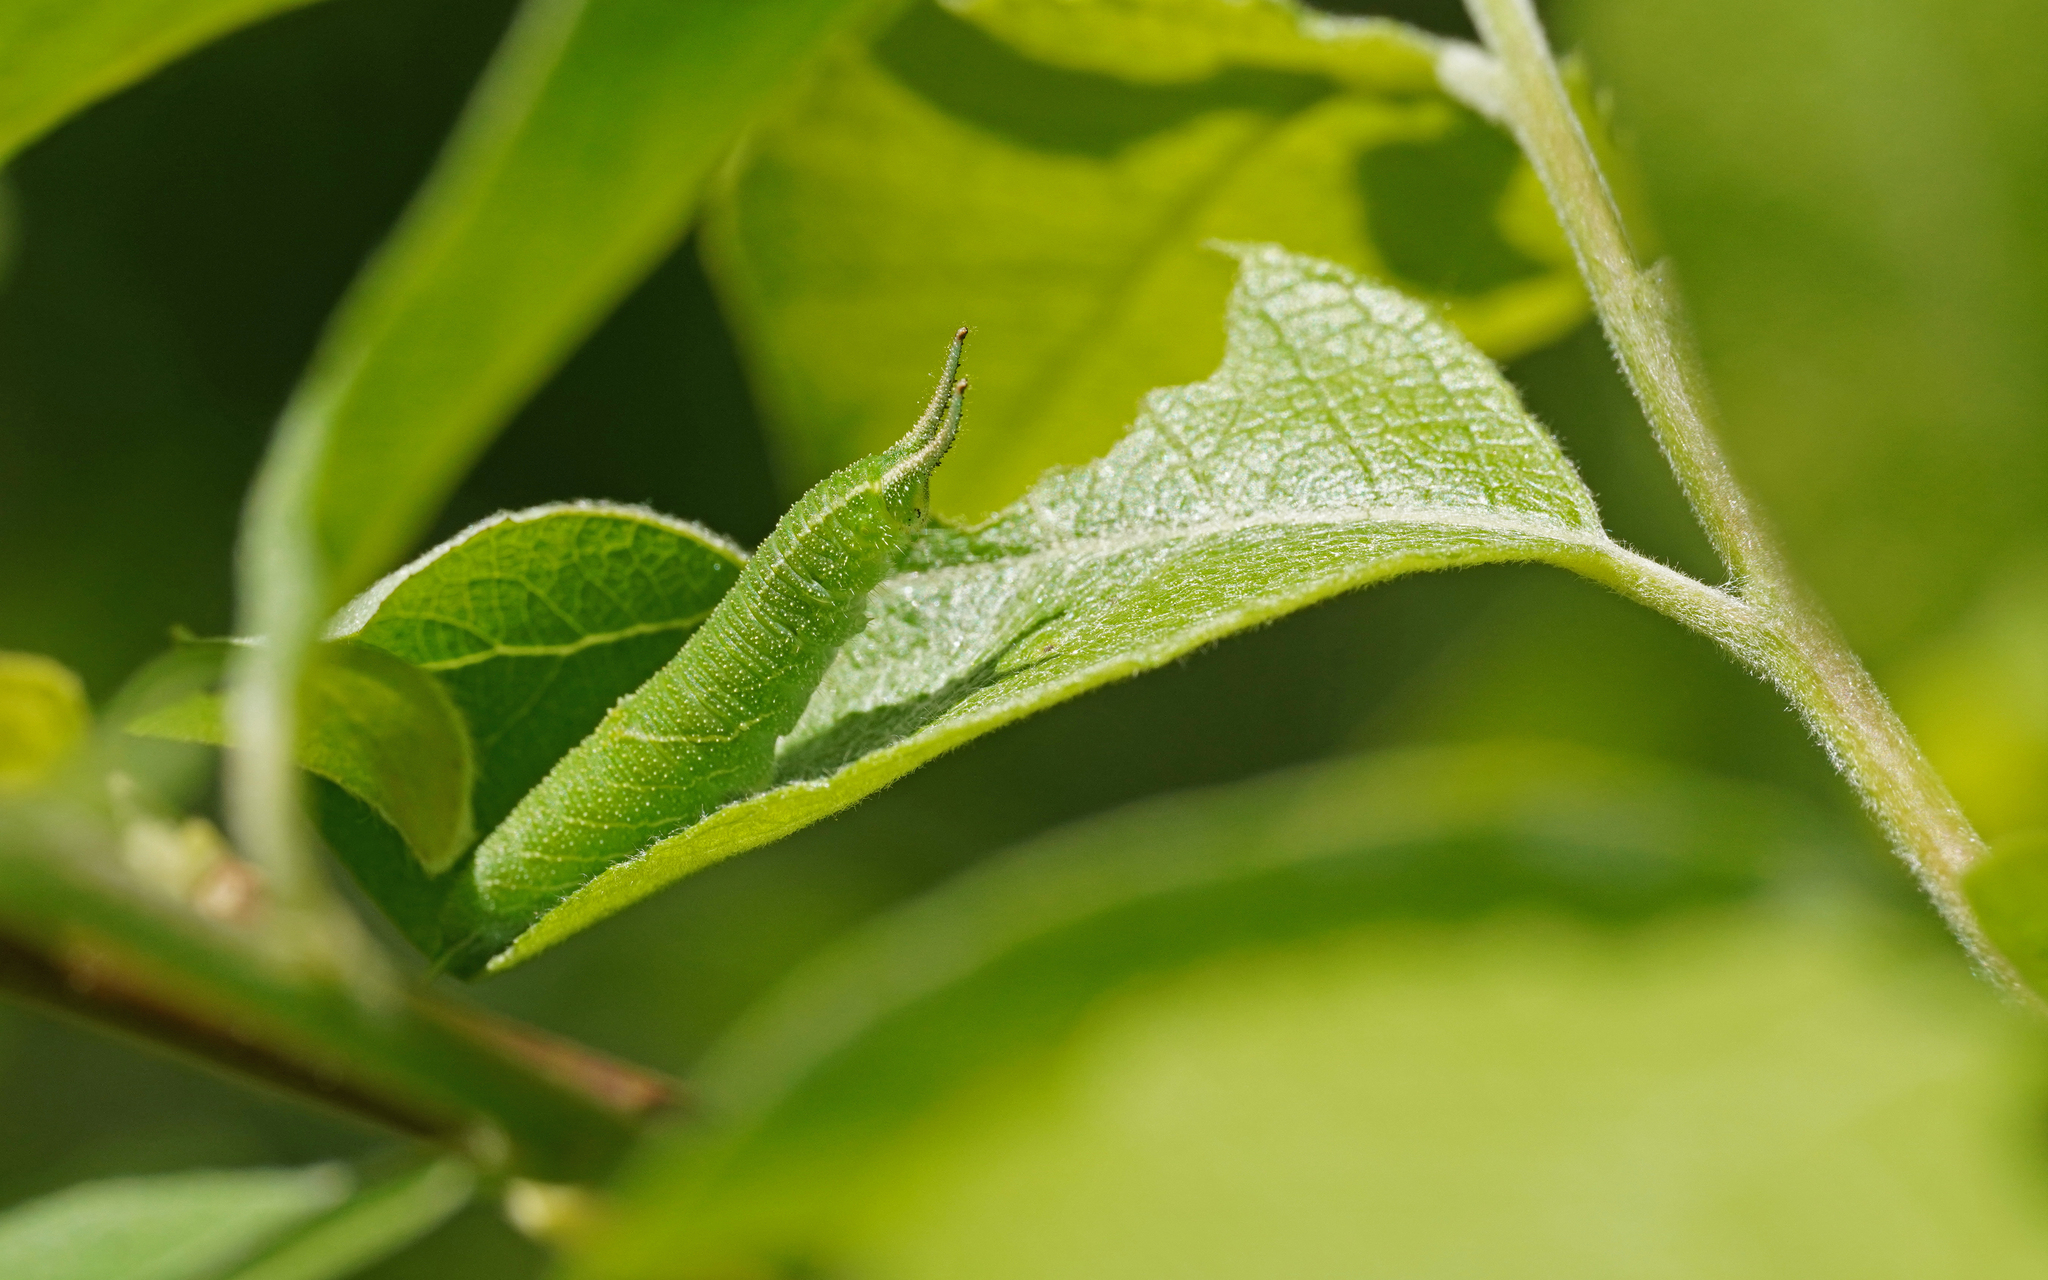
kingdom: Animalia
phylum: Arthropoda
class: Insecta
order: Lepidoptera
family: Nymphalidae
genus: Apatura
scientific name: Apatura iris
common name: Purple emperor
